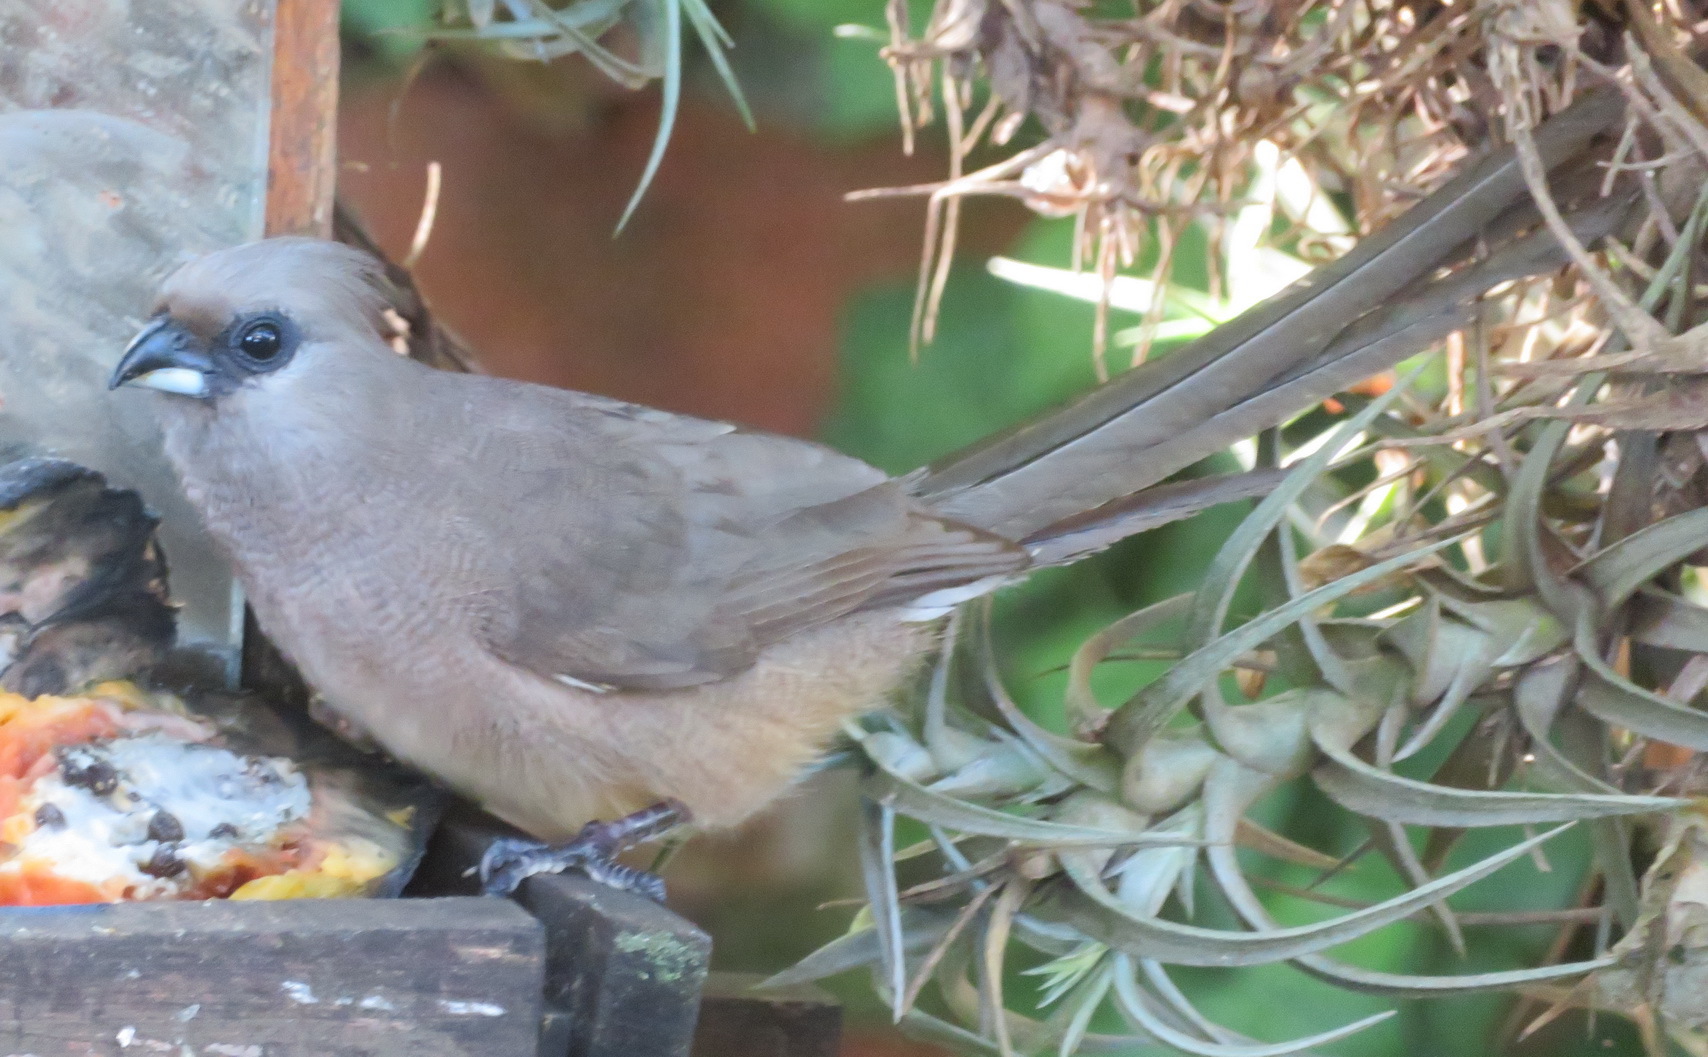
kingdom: Animalia
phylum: Chordata
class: Aves
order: Coliiformes
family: Coliidae
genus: Colius
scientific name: Colius striatus
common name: Speckled mousebird
